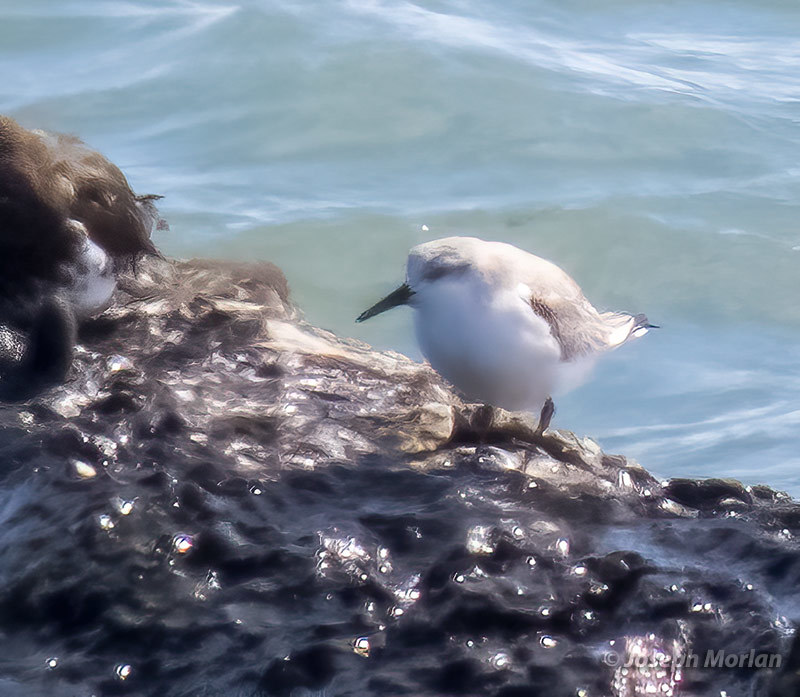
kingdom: Animalia
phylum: Chordata
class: Aves
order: Charadriiformes
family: Scolopacidae
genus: Calidris
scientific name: Calidris alba
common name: Sanderling
